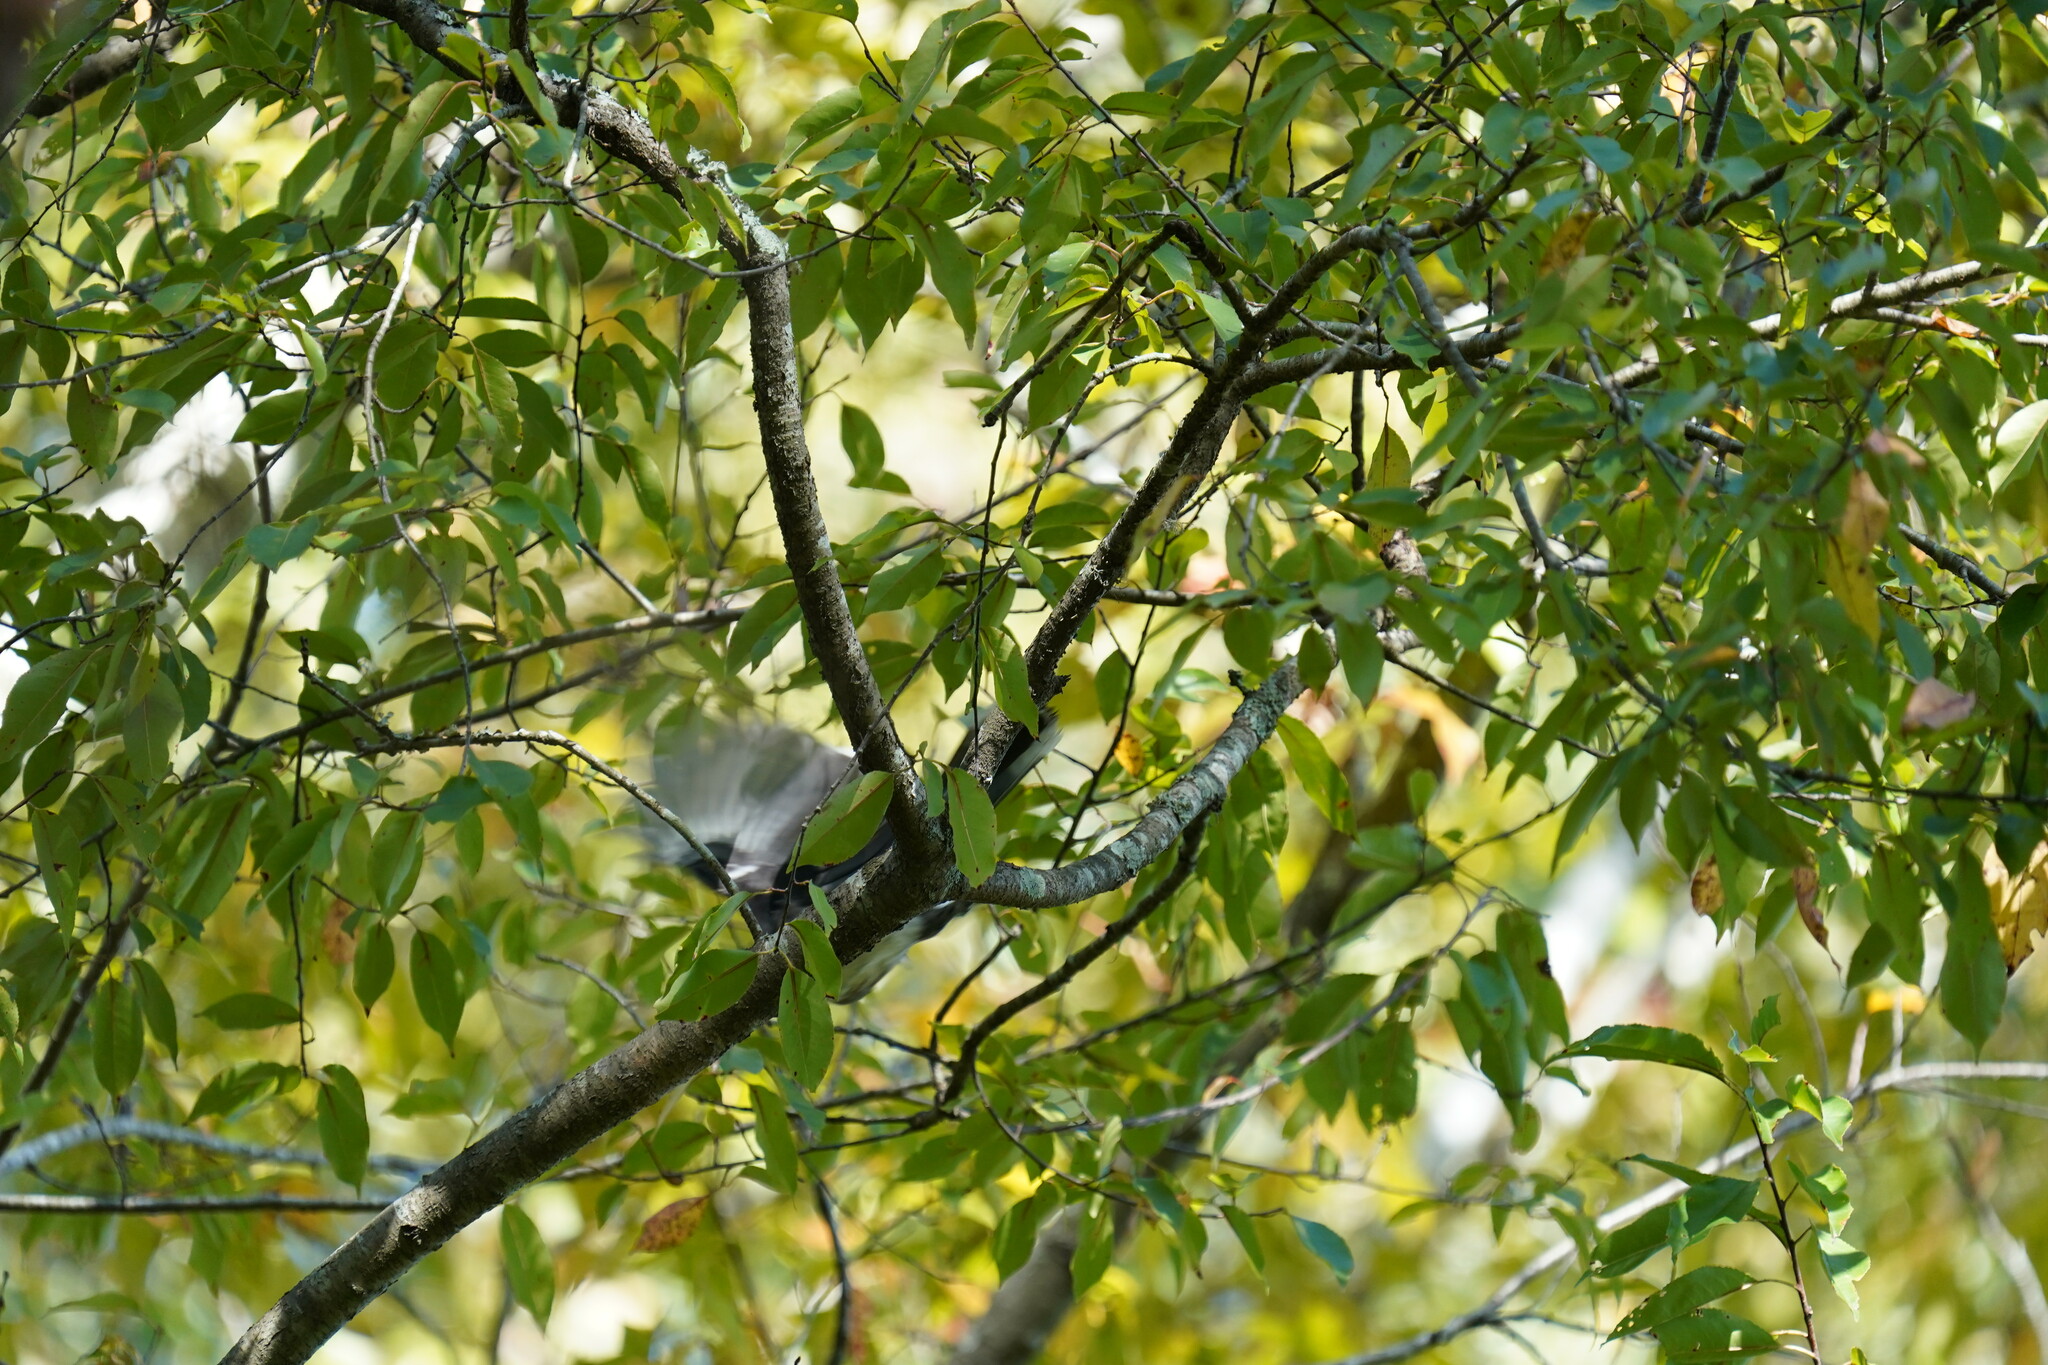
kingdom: Animalia
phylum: Chordata
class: Aves
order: Passeriformes
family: Corvidae
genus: Cyanocitta
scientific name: Cyanocitta cristata
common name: Blue jay
